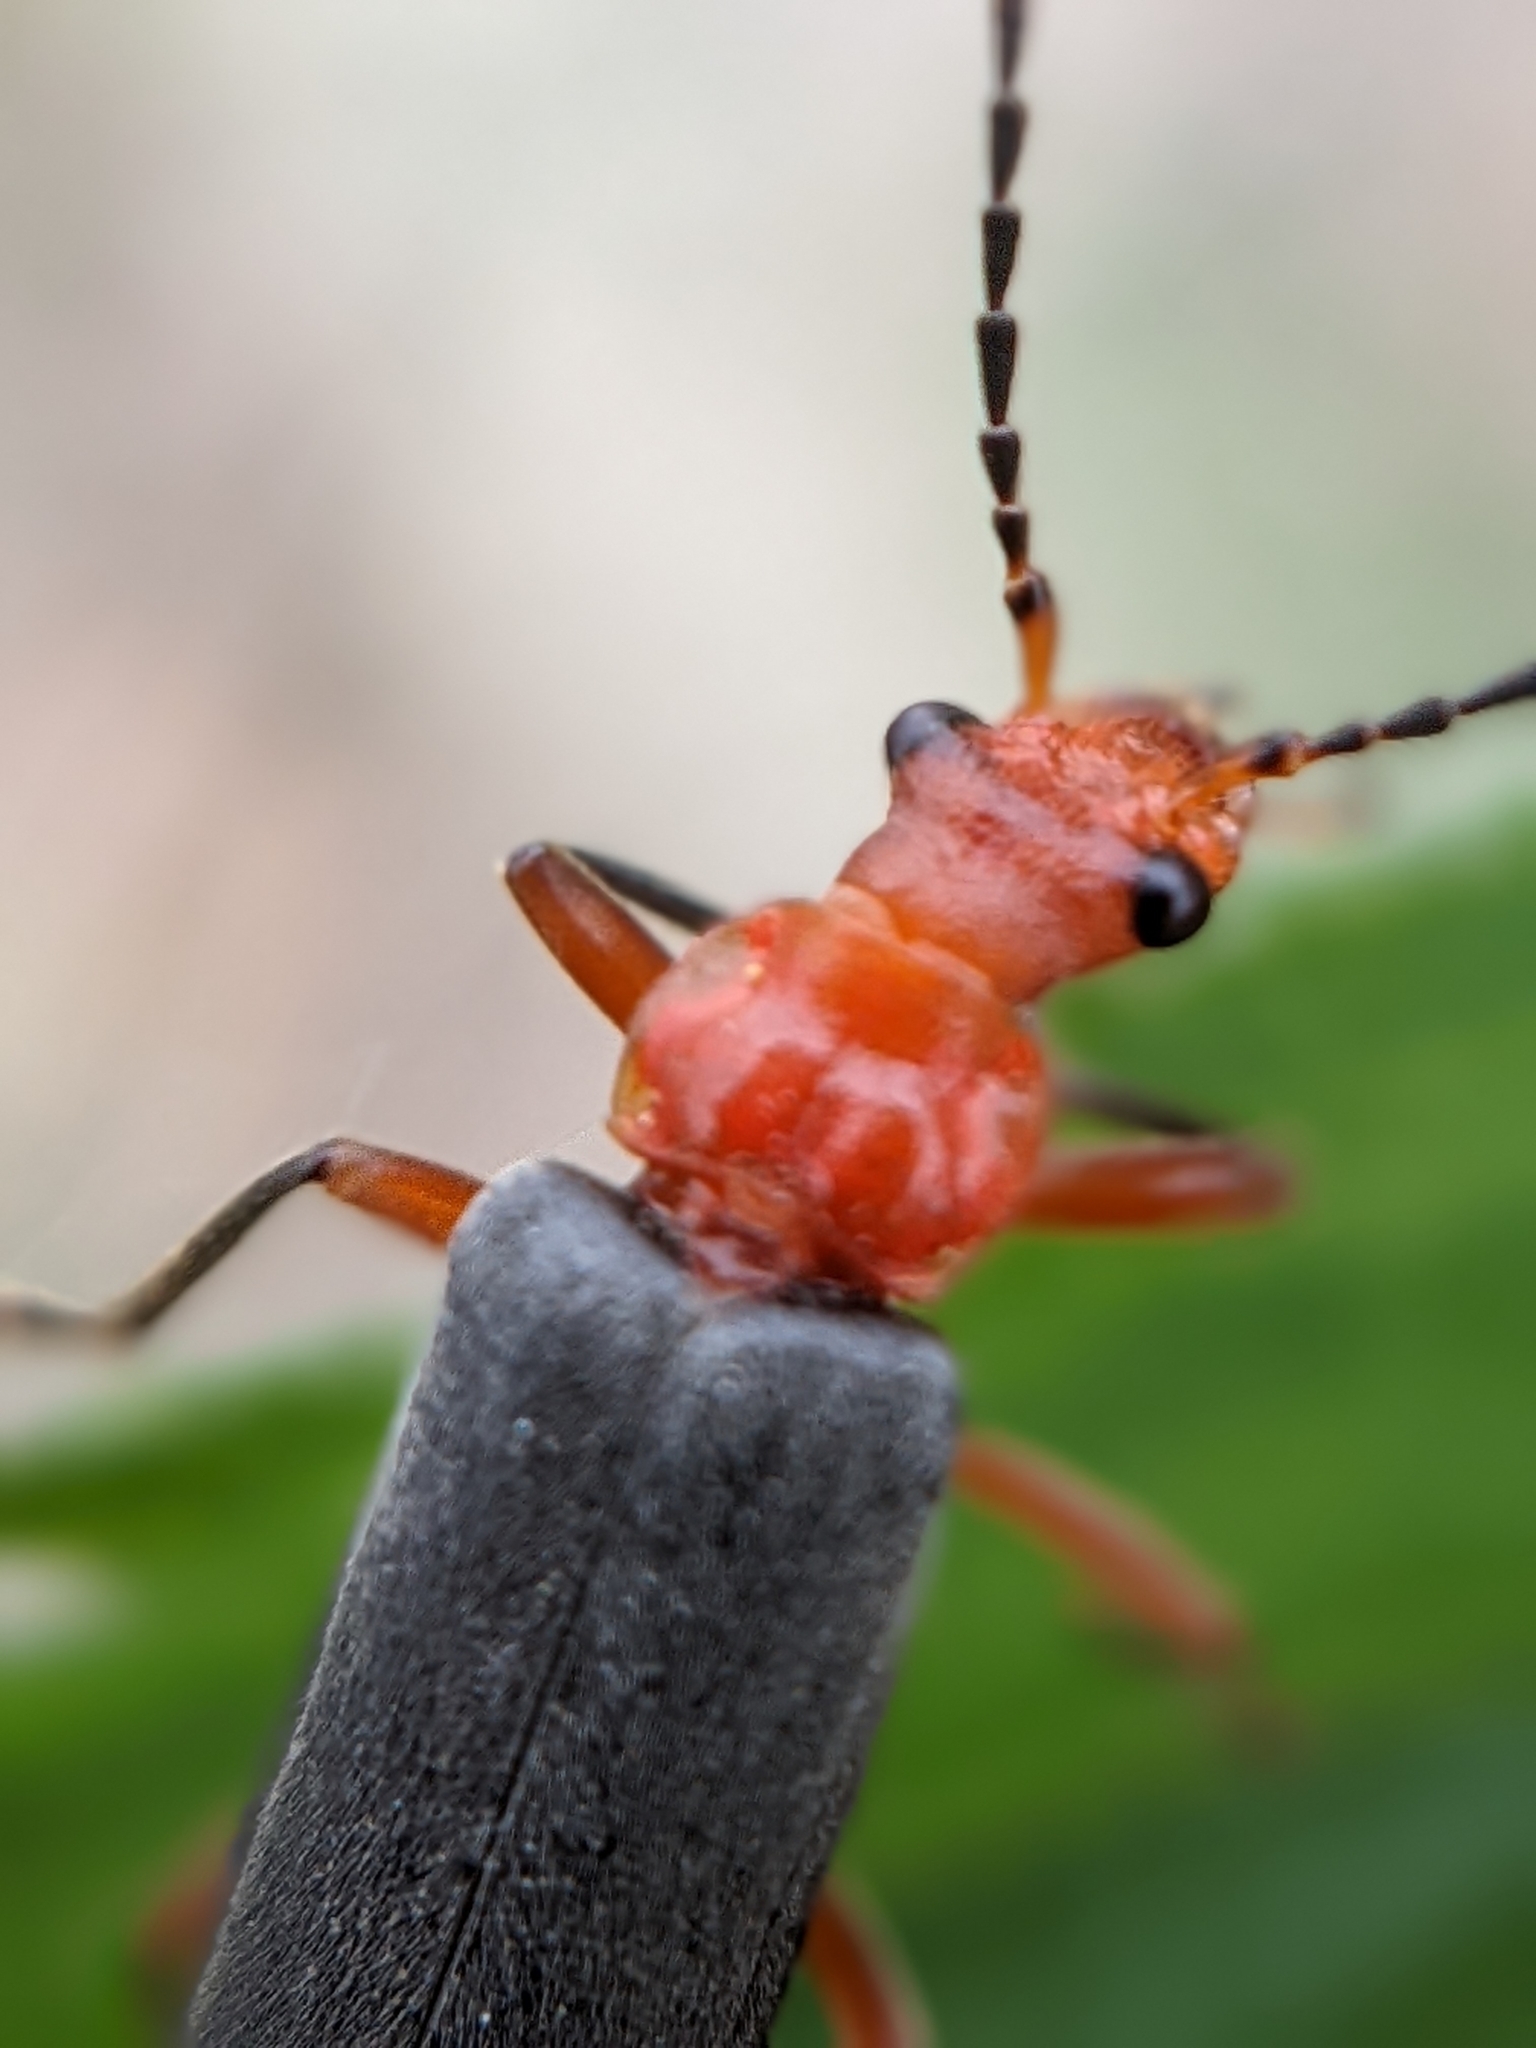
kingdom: Animalia
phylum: Arthropoda
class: Insecta
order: Coleoptera
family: Cantharidae
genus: Podabrus
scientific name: Podabrus pruinosus
